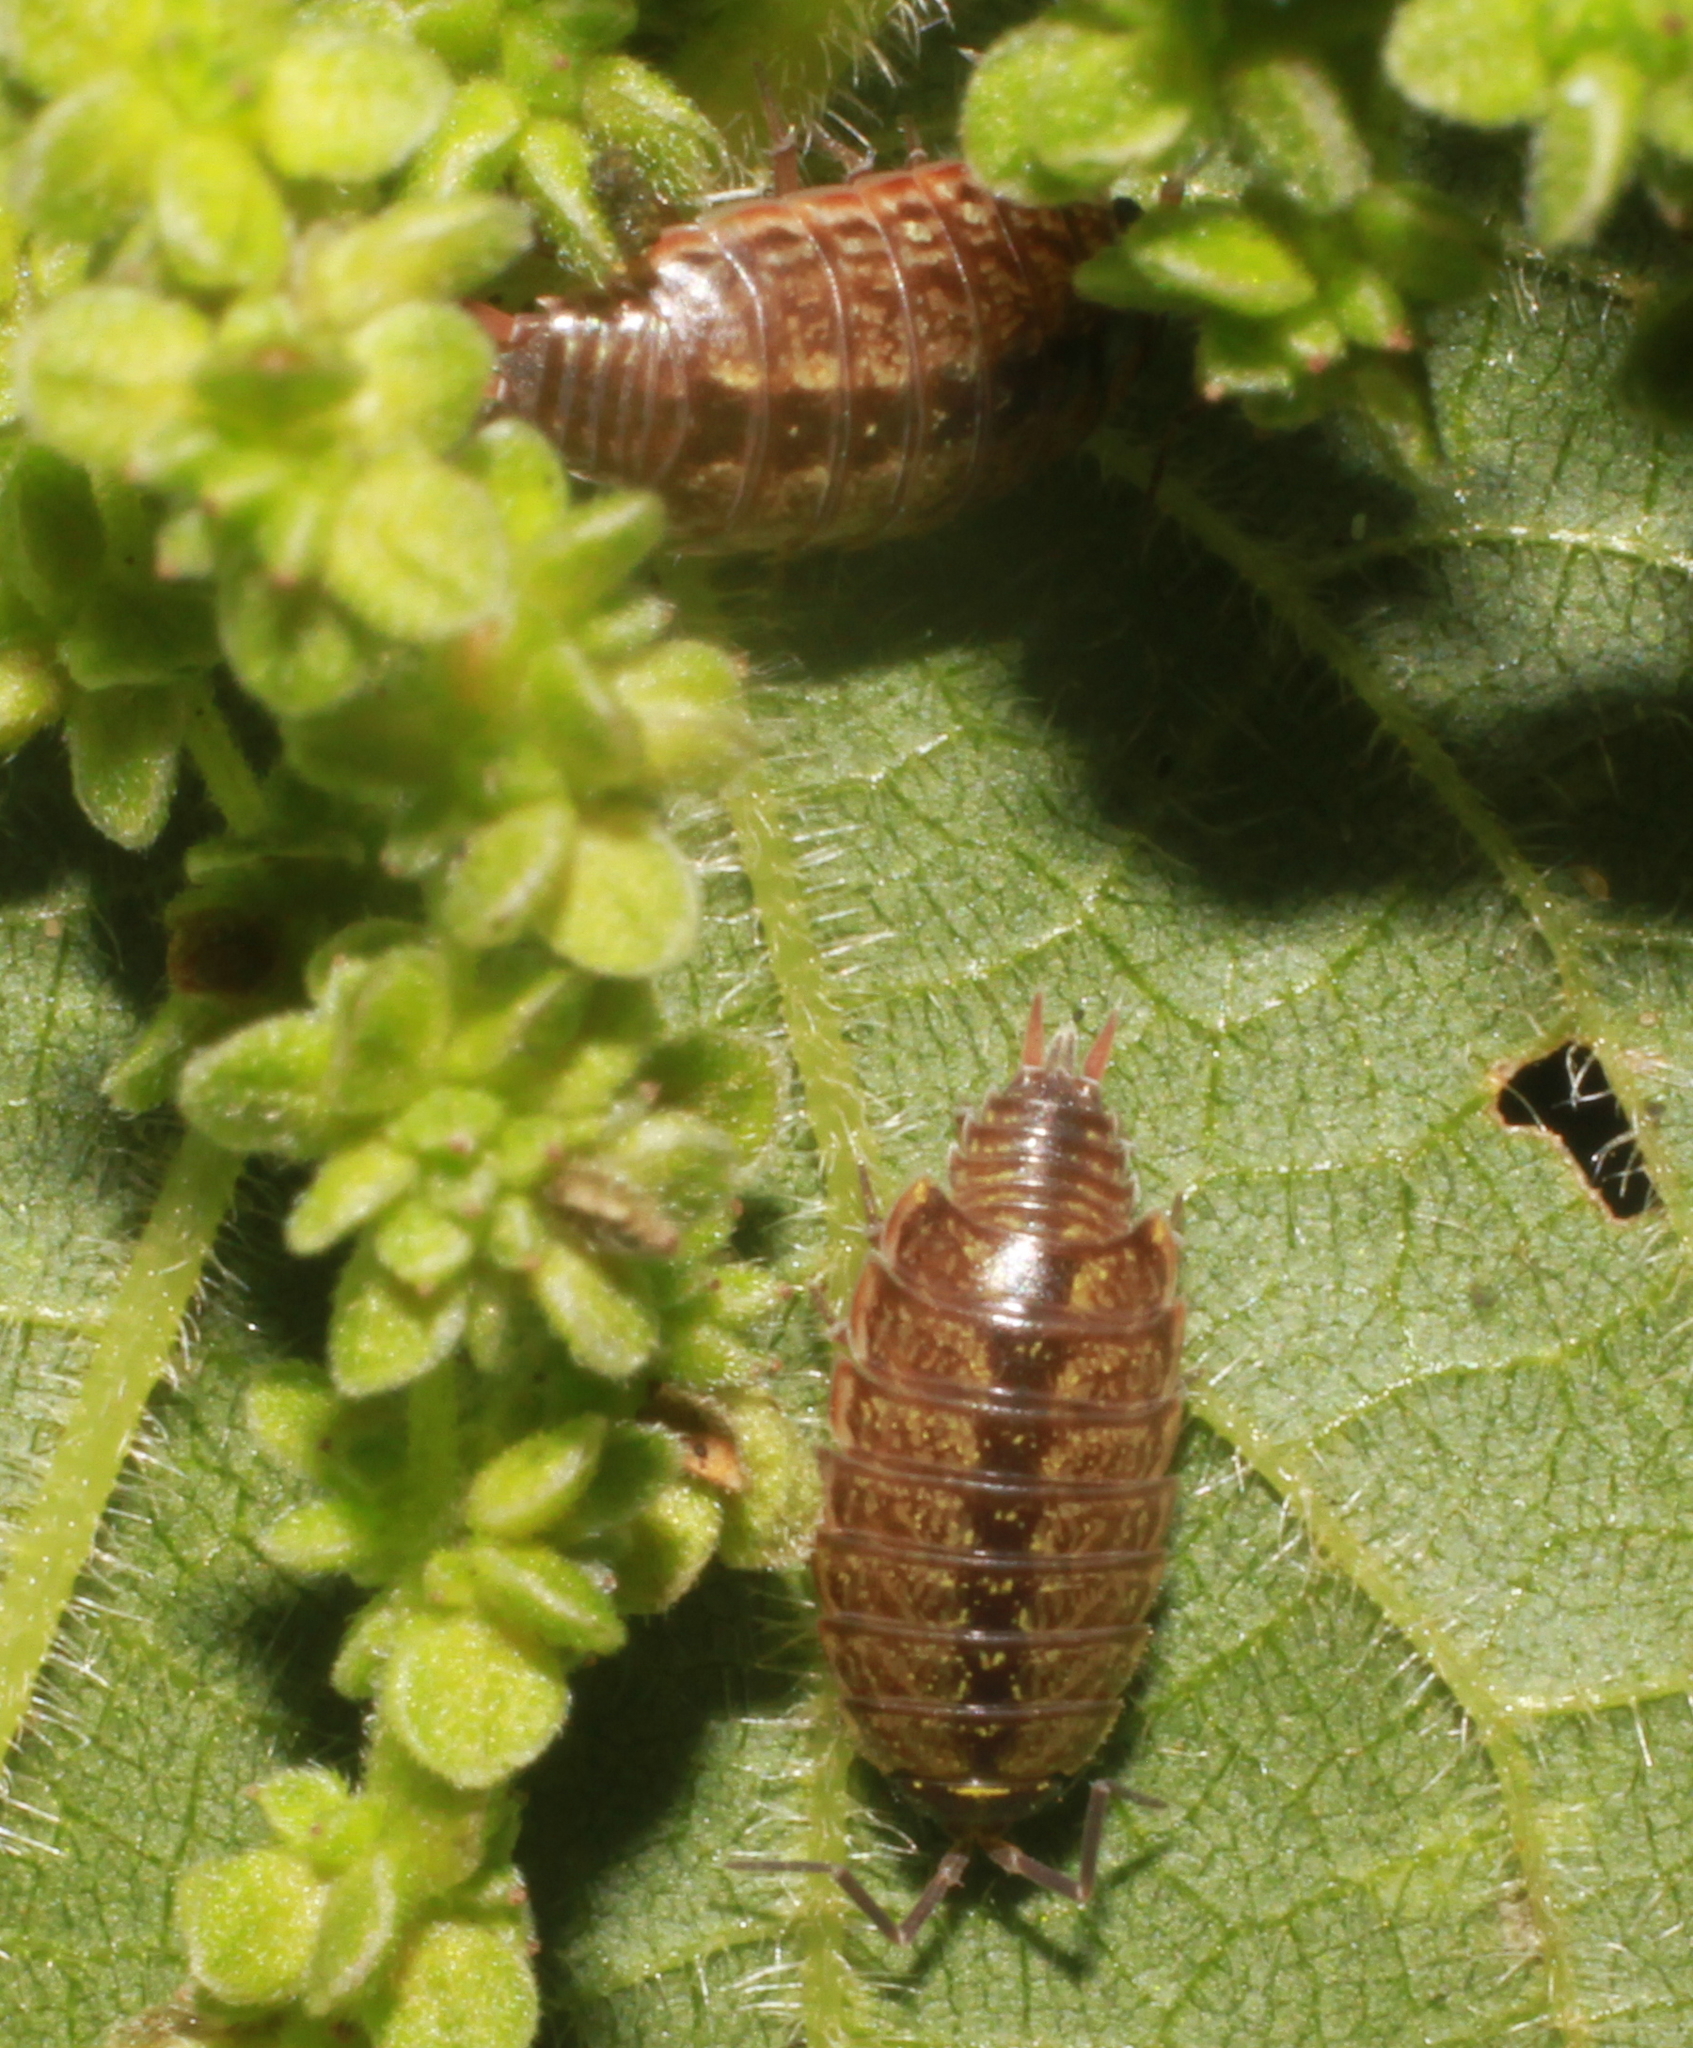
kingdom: Animalia
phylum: Arthropoda
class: Malacostraca
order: Isopoda
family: Philosciidae
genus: Philoscia
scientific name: Philoscia muscorum
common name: Common striped woodlouse
